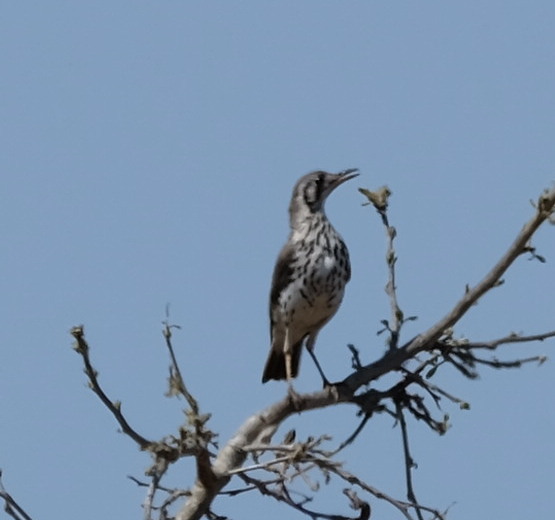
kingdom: Animalia
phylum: Chordata
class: Aves
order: Passeriformes
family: Turdidae
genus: Psophocichla
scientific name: Psophocichla litsitsirupa
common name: Groundscraper thrush
